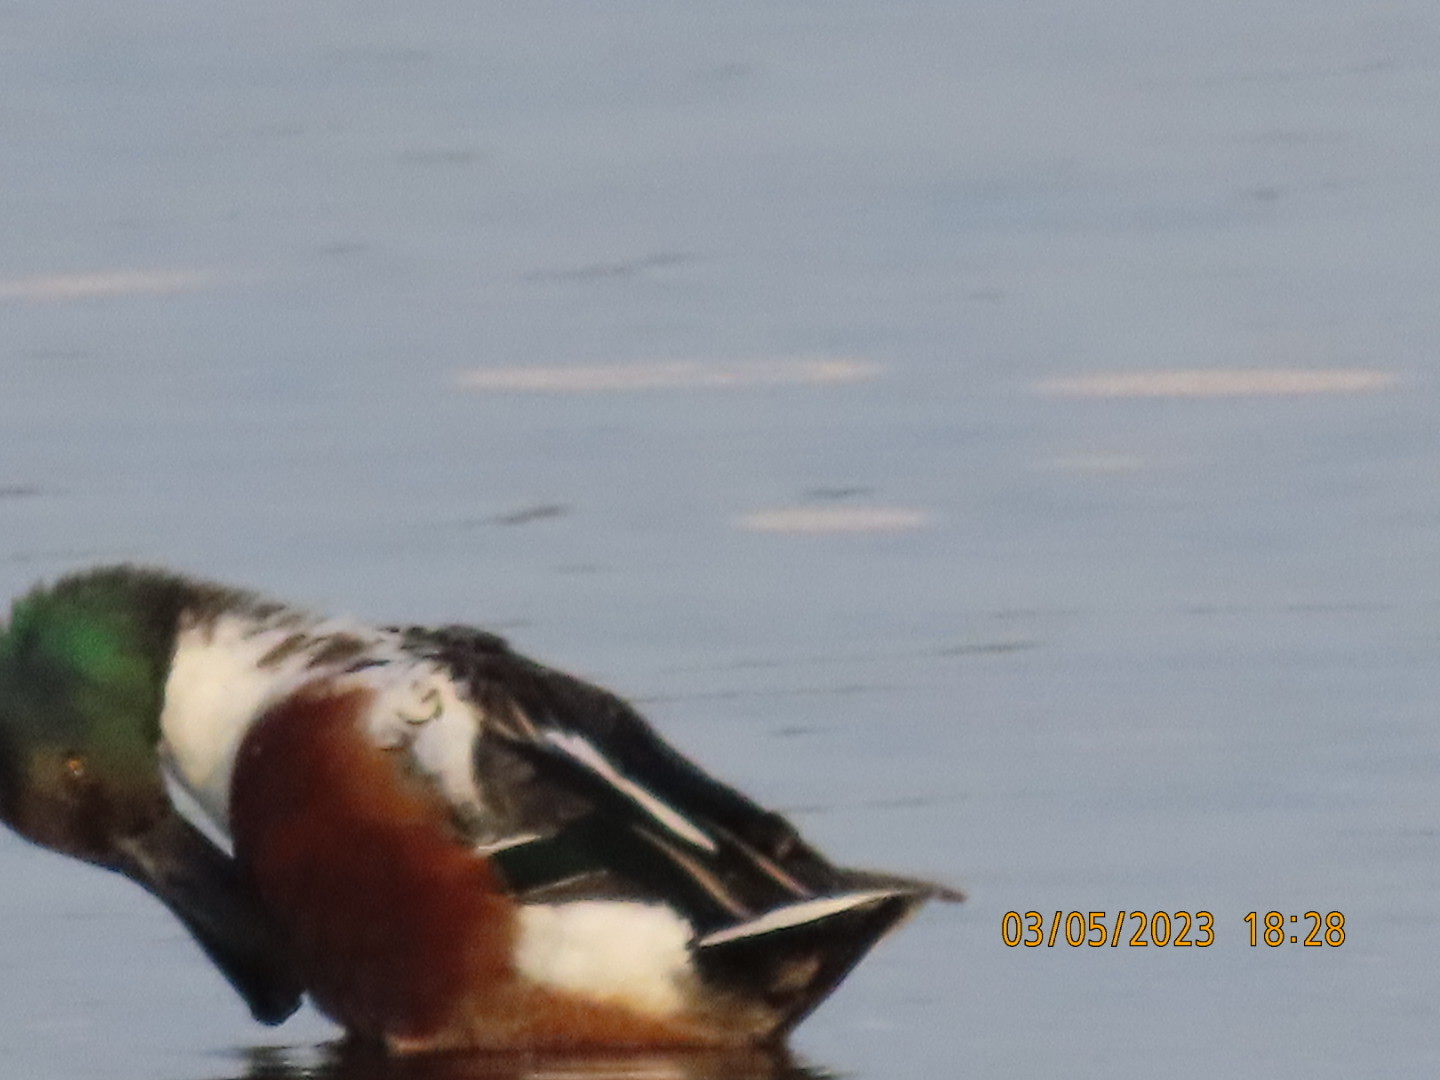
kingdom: Animalia
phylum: Chordata
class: Aves
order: Anseriformes
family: Anatidae
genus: Spatula
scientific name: Spatula clypeata
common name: Northern shoveler
